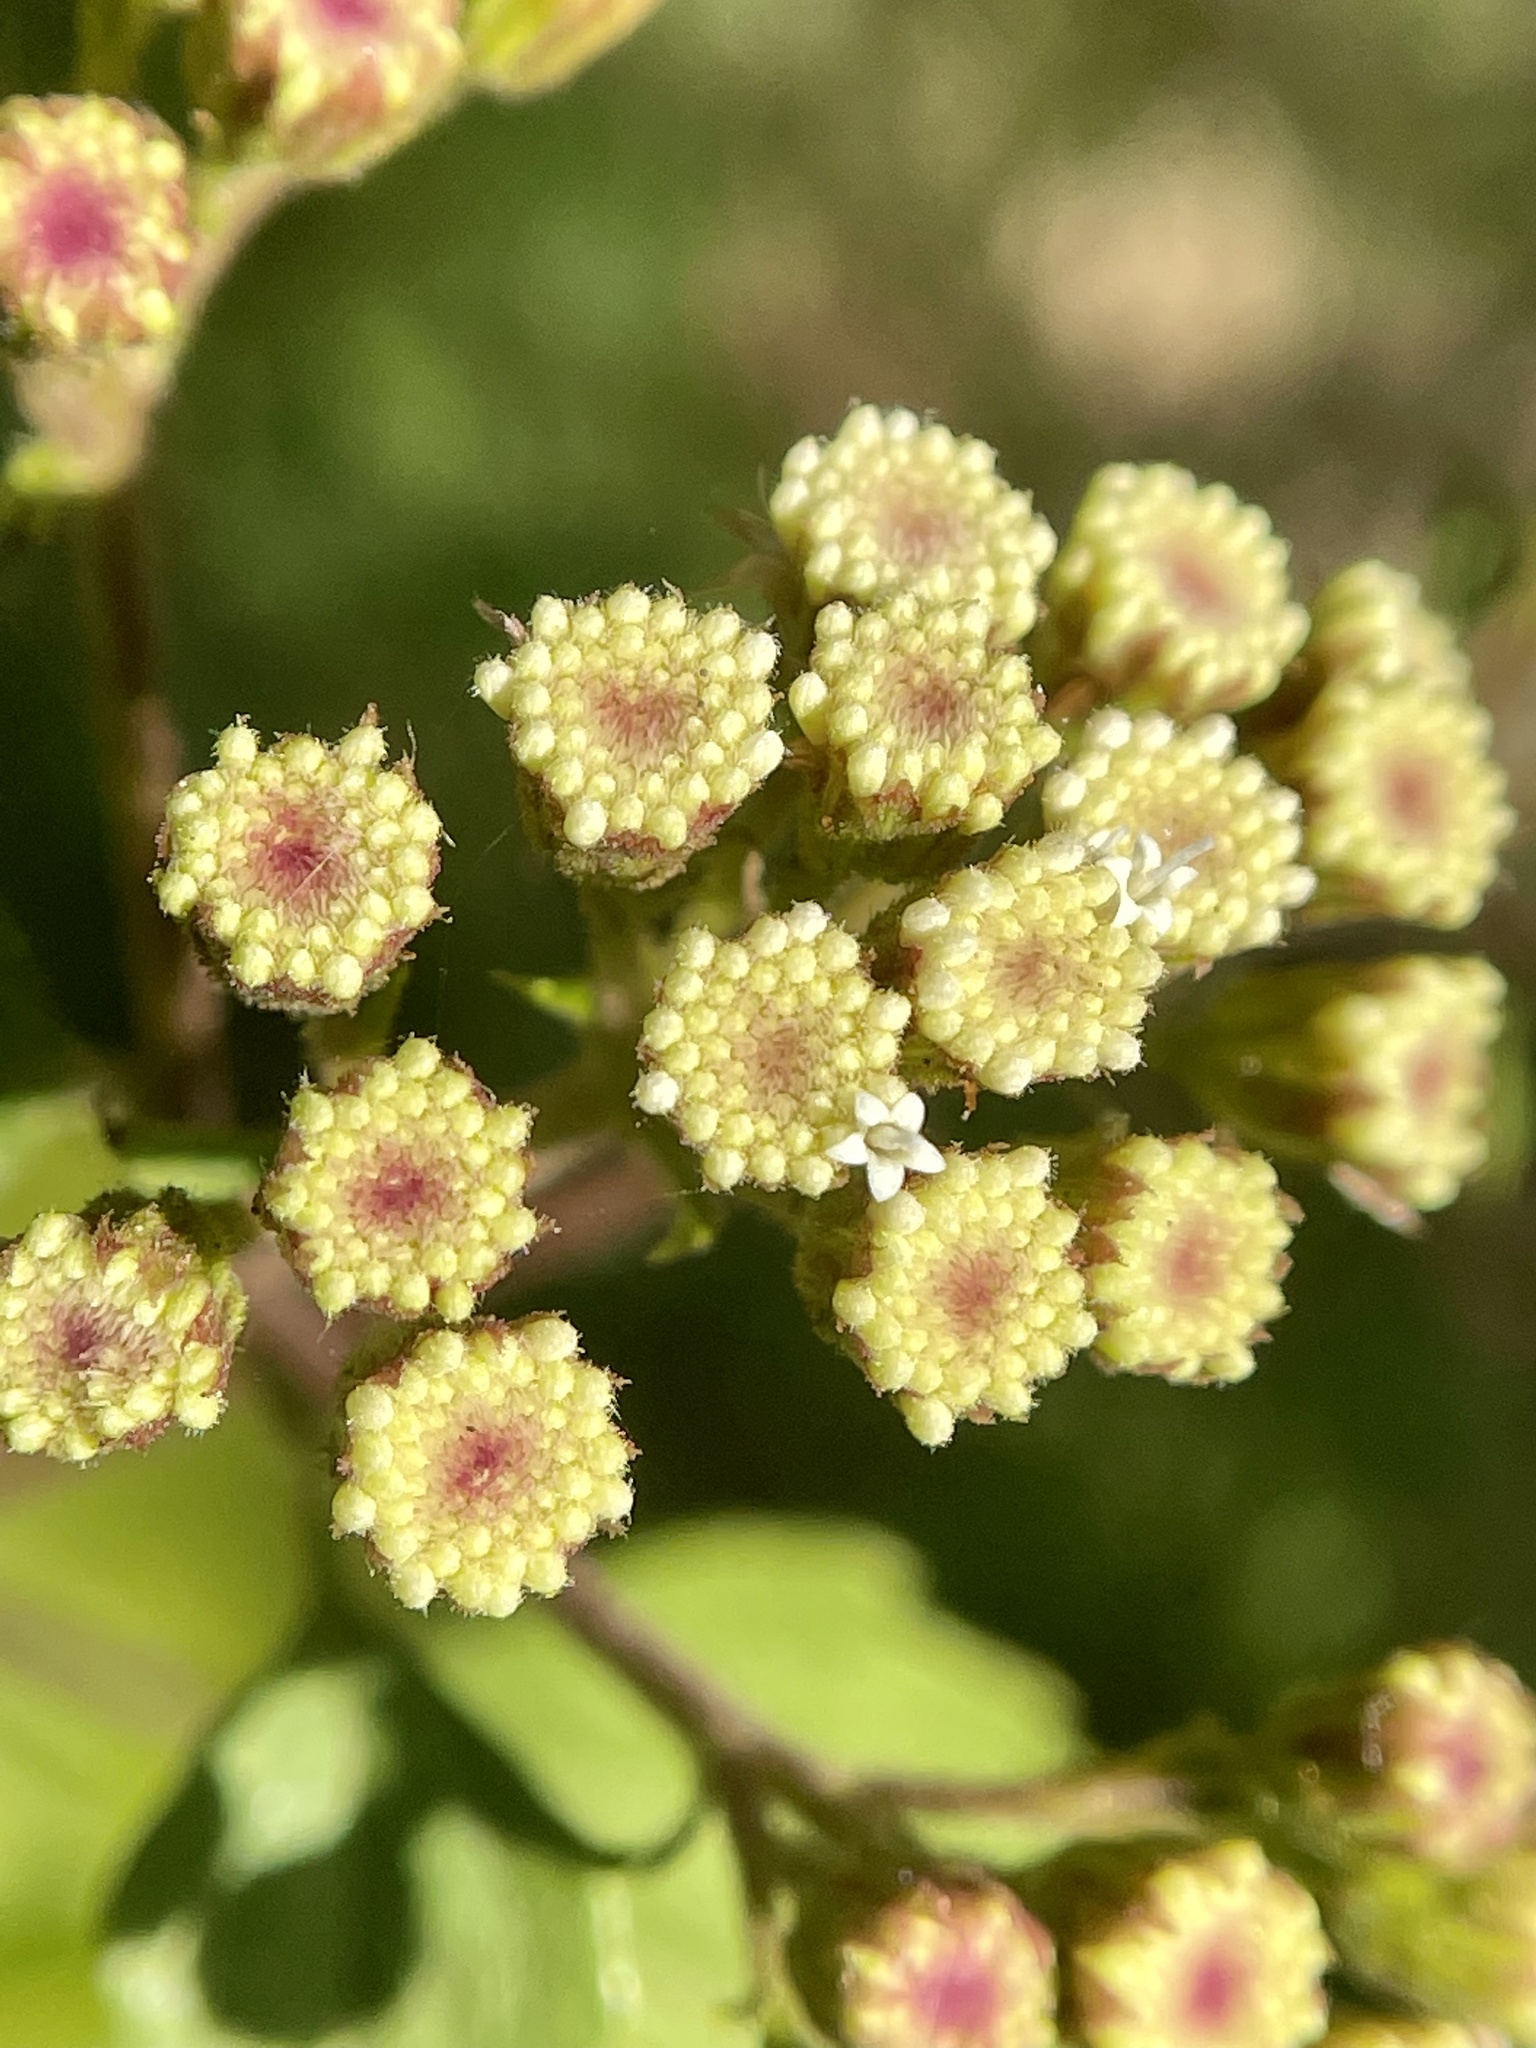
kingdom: Plantae
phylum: Tracheophyta
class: Magnoliopsida
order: Asterales
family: Asteraceae
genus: Ageratina
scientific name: Ageratina adenophora
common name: Sticky snakeroot
